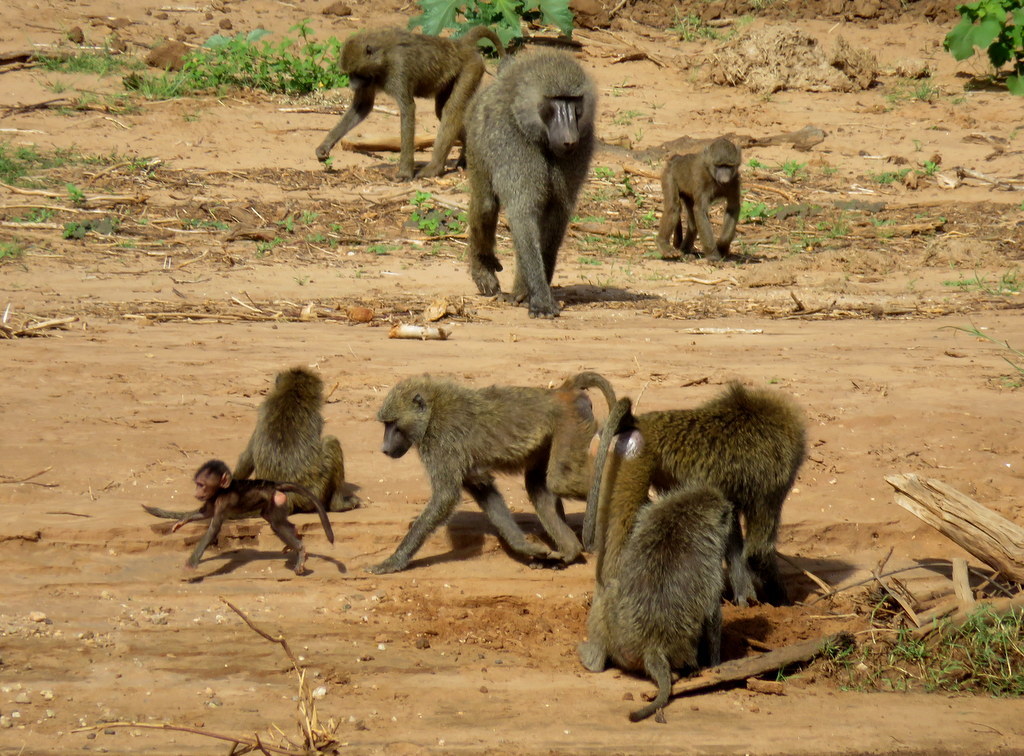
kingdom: Animalia
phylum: Chordata
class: Mammalia
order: Primates
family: Cercopithecidae
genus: Papio
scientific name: Papio anubis
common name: Olive baboon
